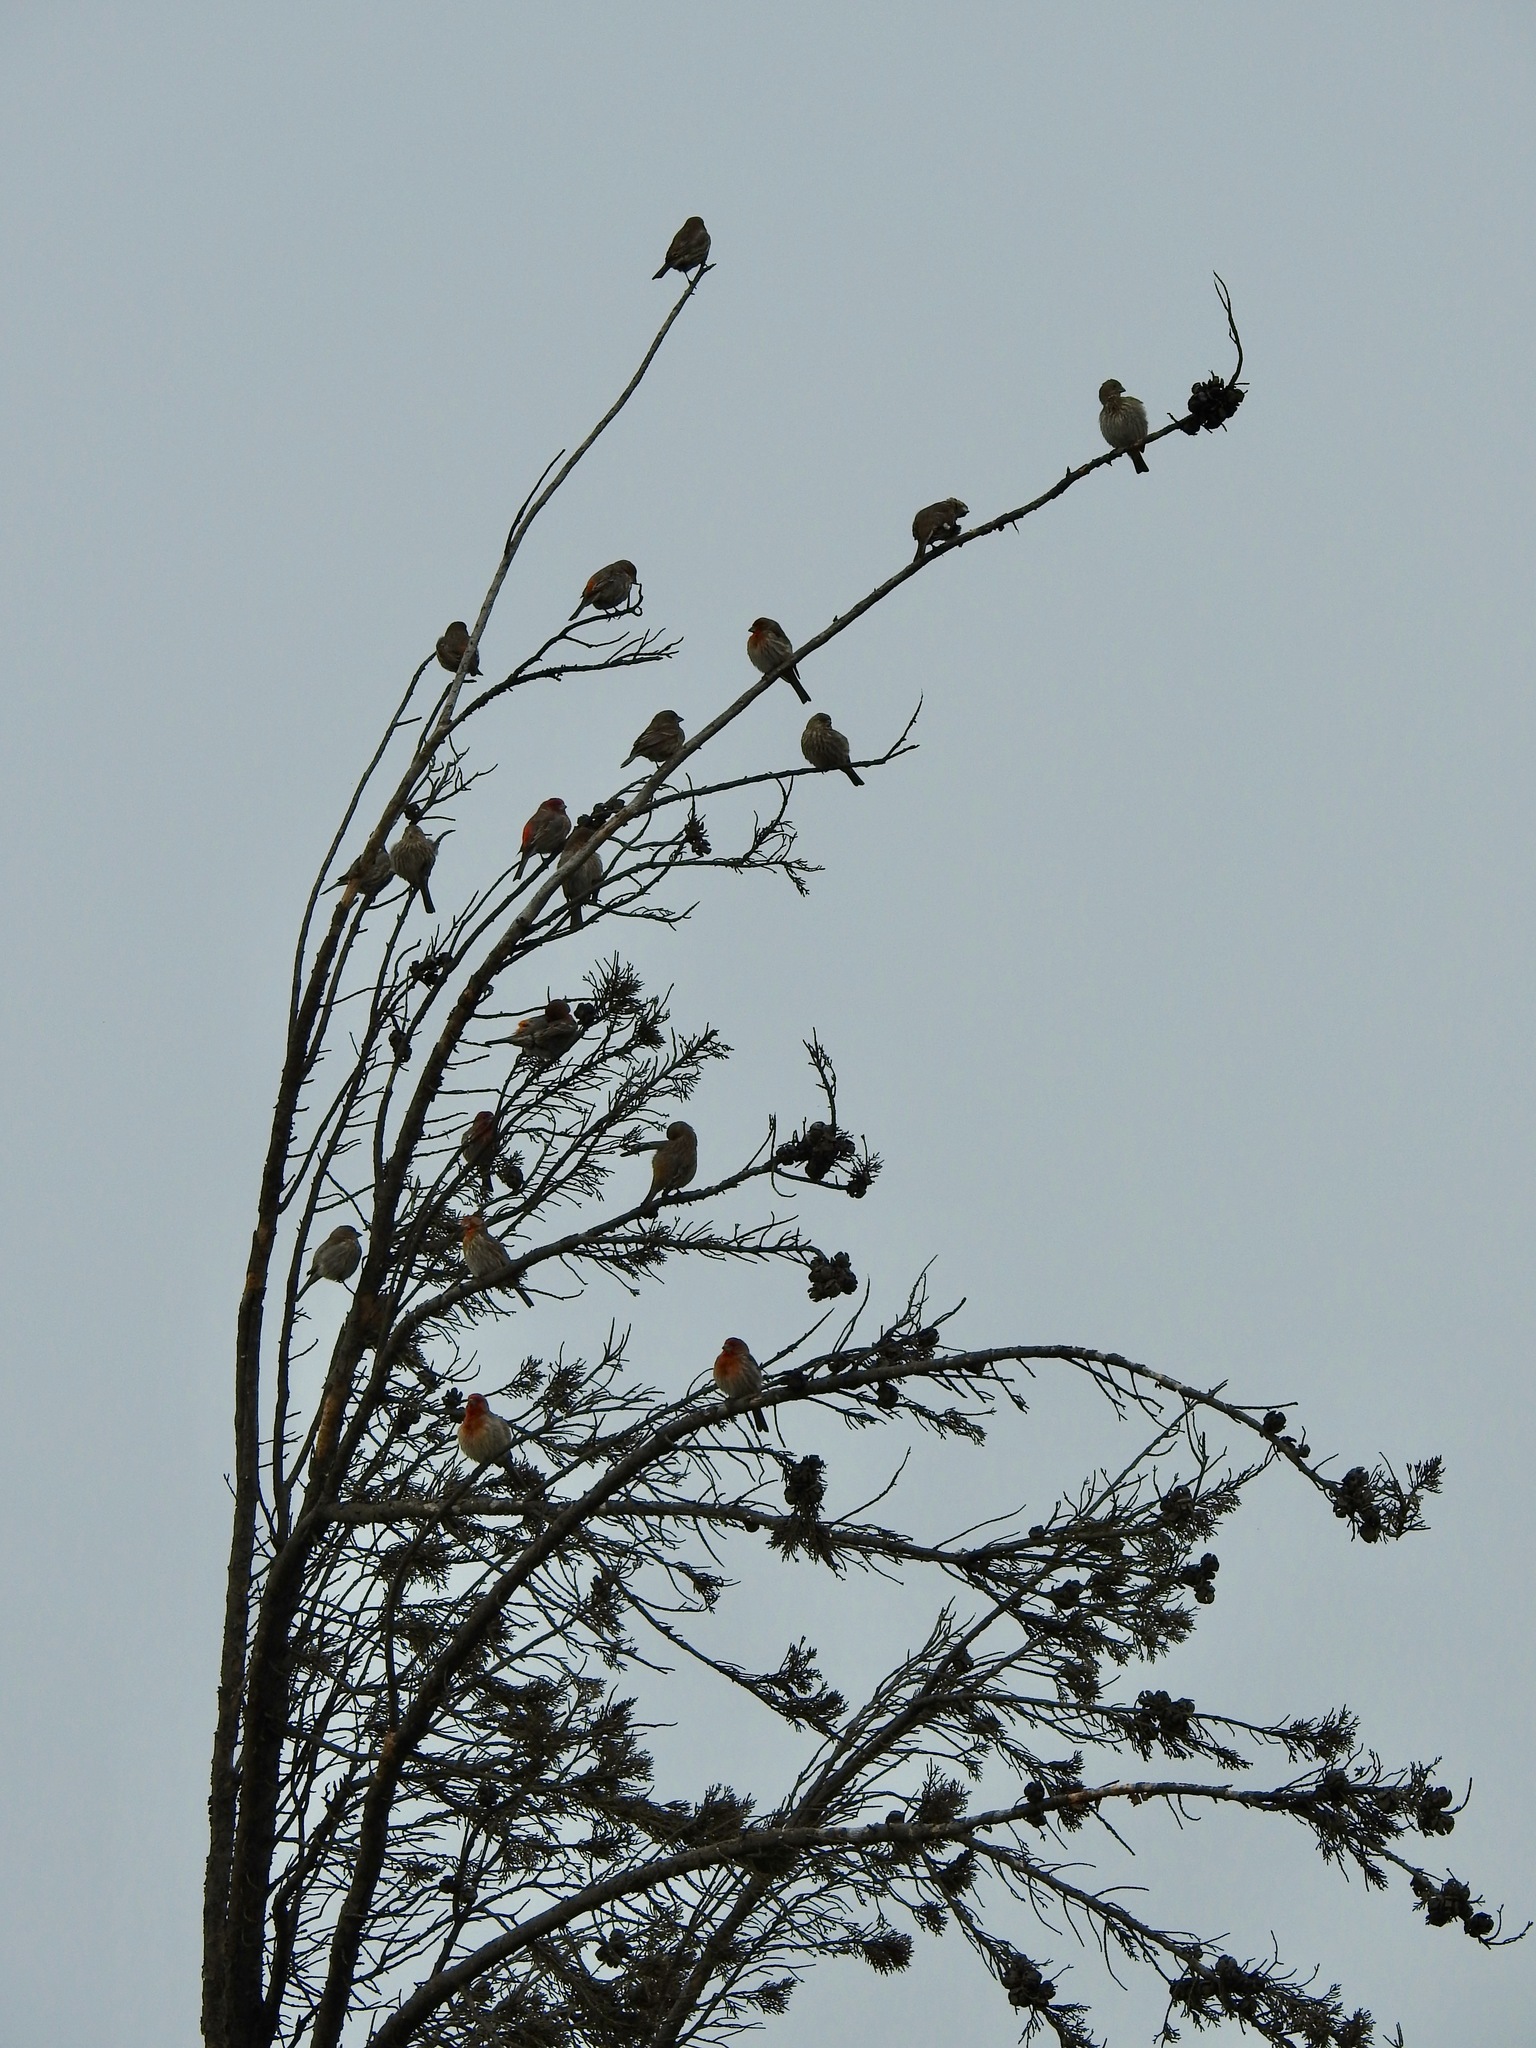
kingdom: Animalia
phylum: Chordata
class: Aves
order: Passeriformes
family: Fringillidae
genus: Haemorhous
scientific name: Haemorhous mexicanus
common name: House finch
